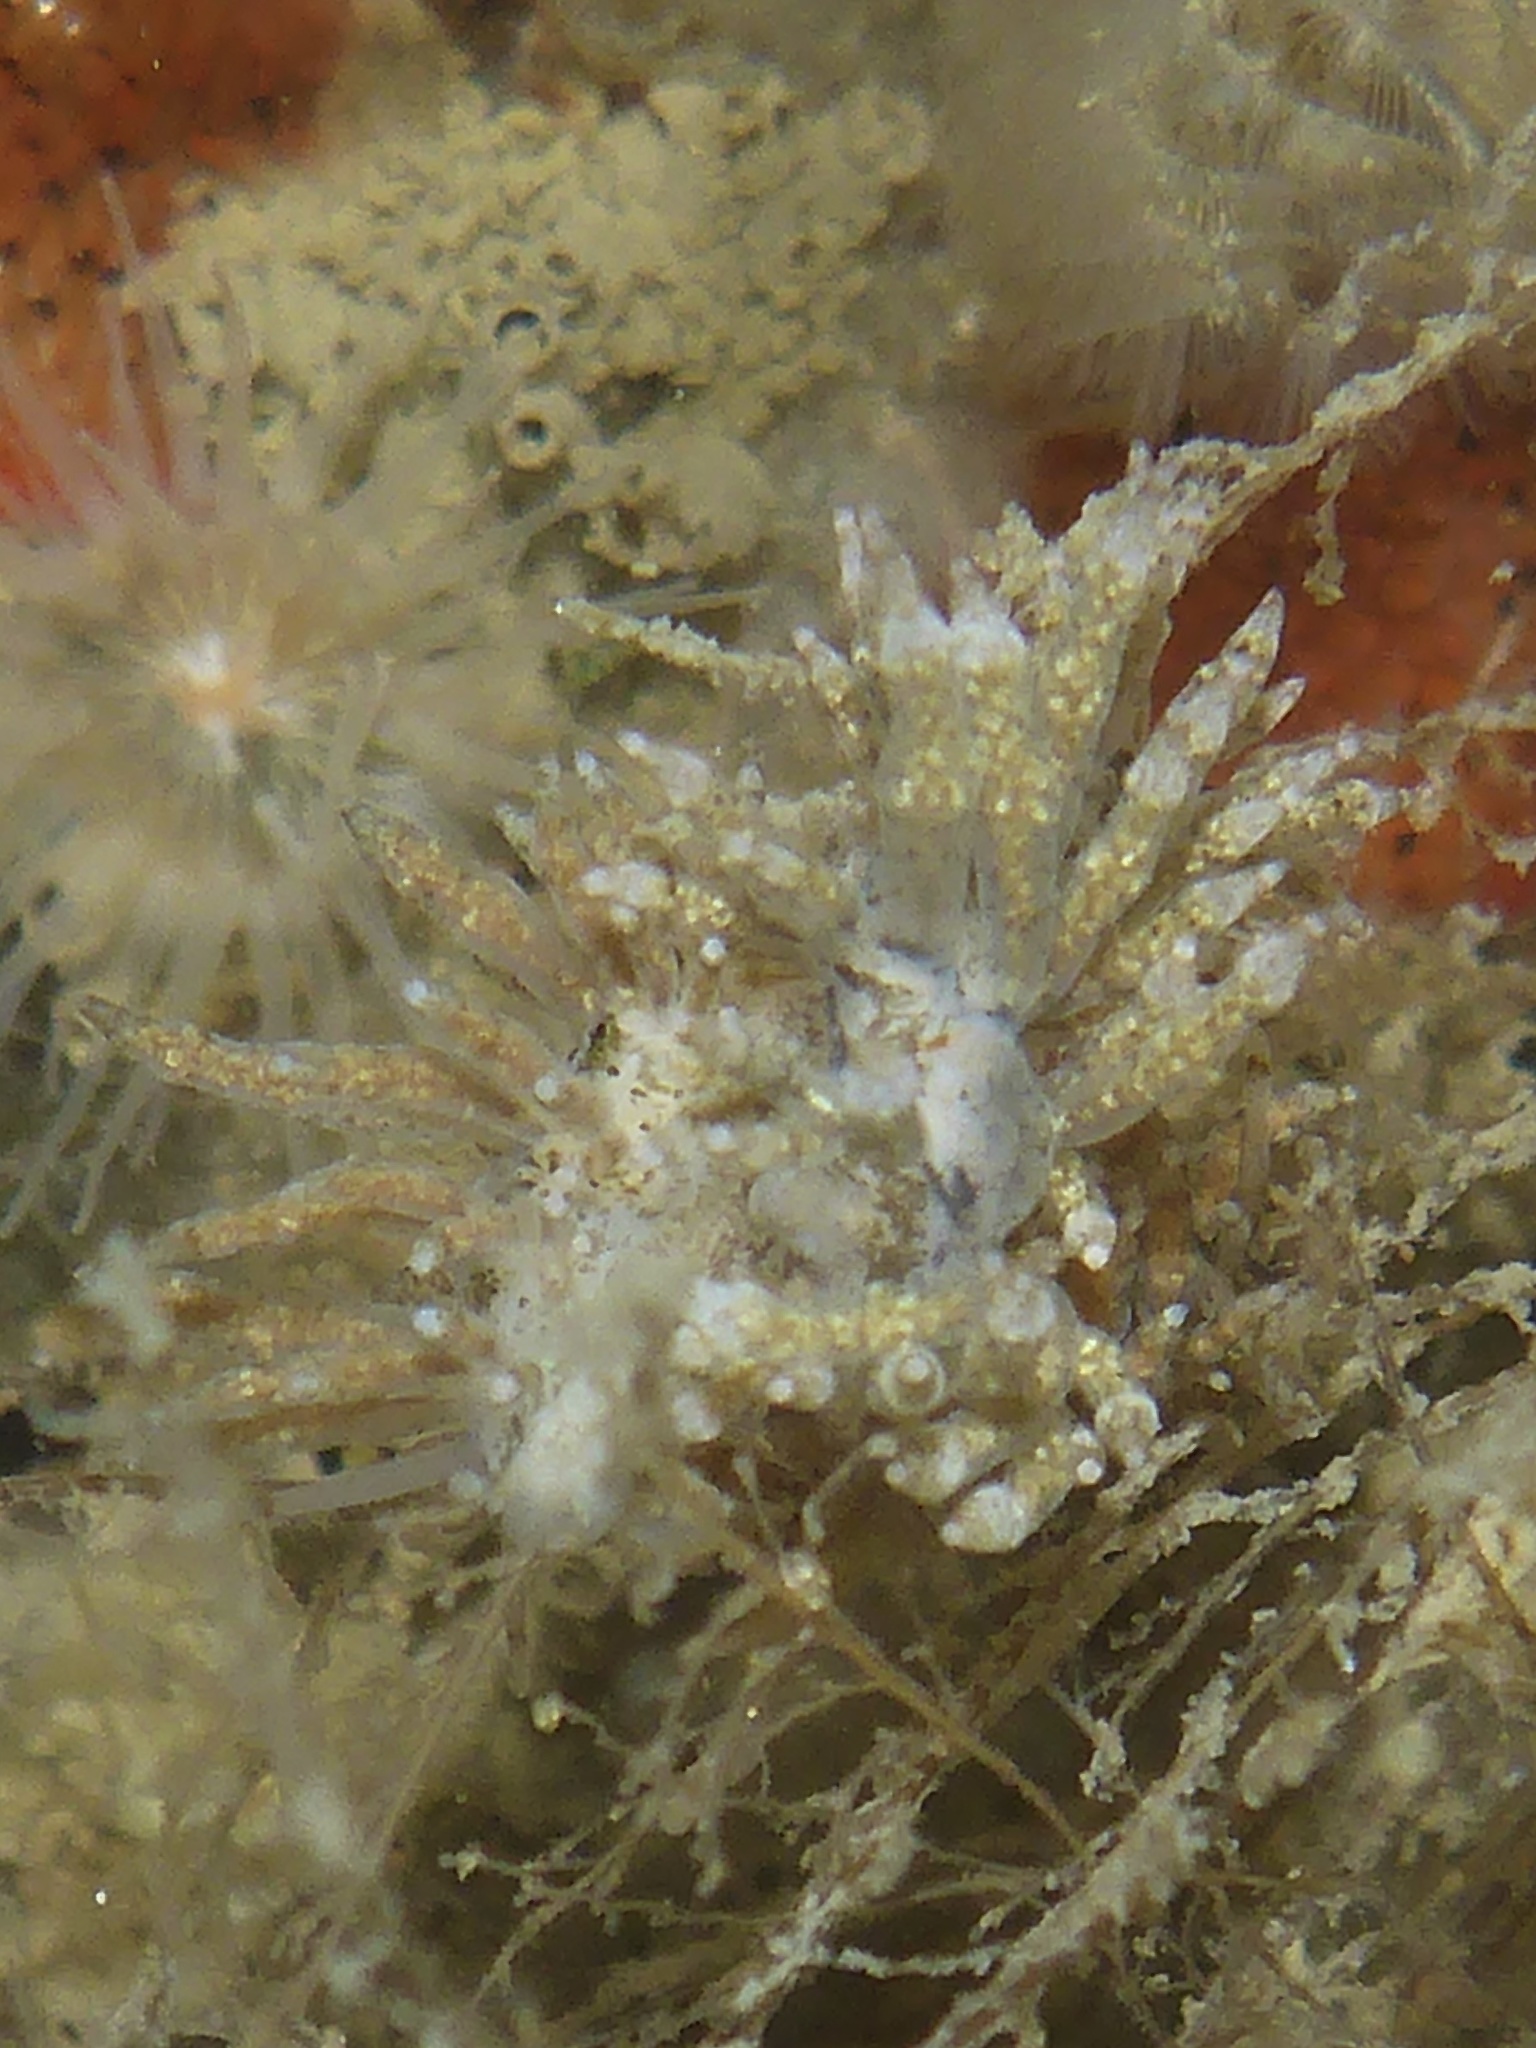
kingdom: Animalia
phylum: Mollusca
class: Gastropoda
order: Nudibranchia
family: Eubranchidae
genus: Eubranchus
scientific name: Eubranchus rustyus
